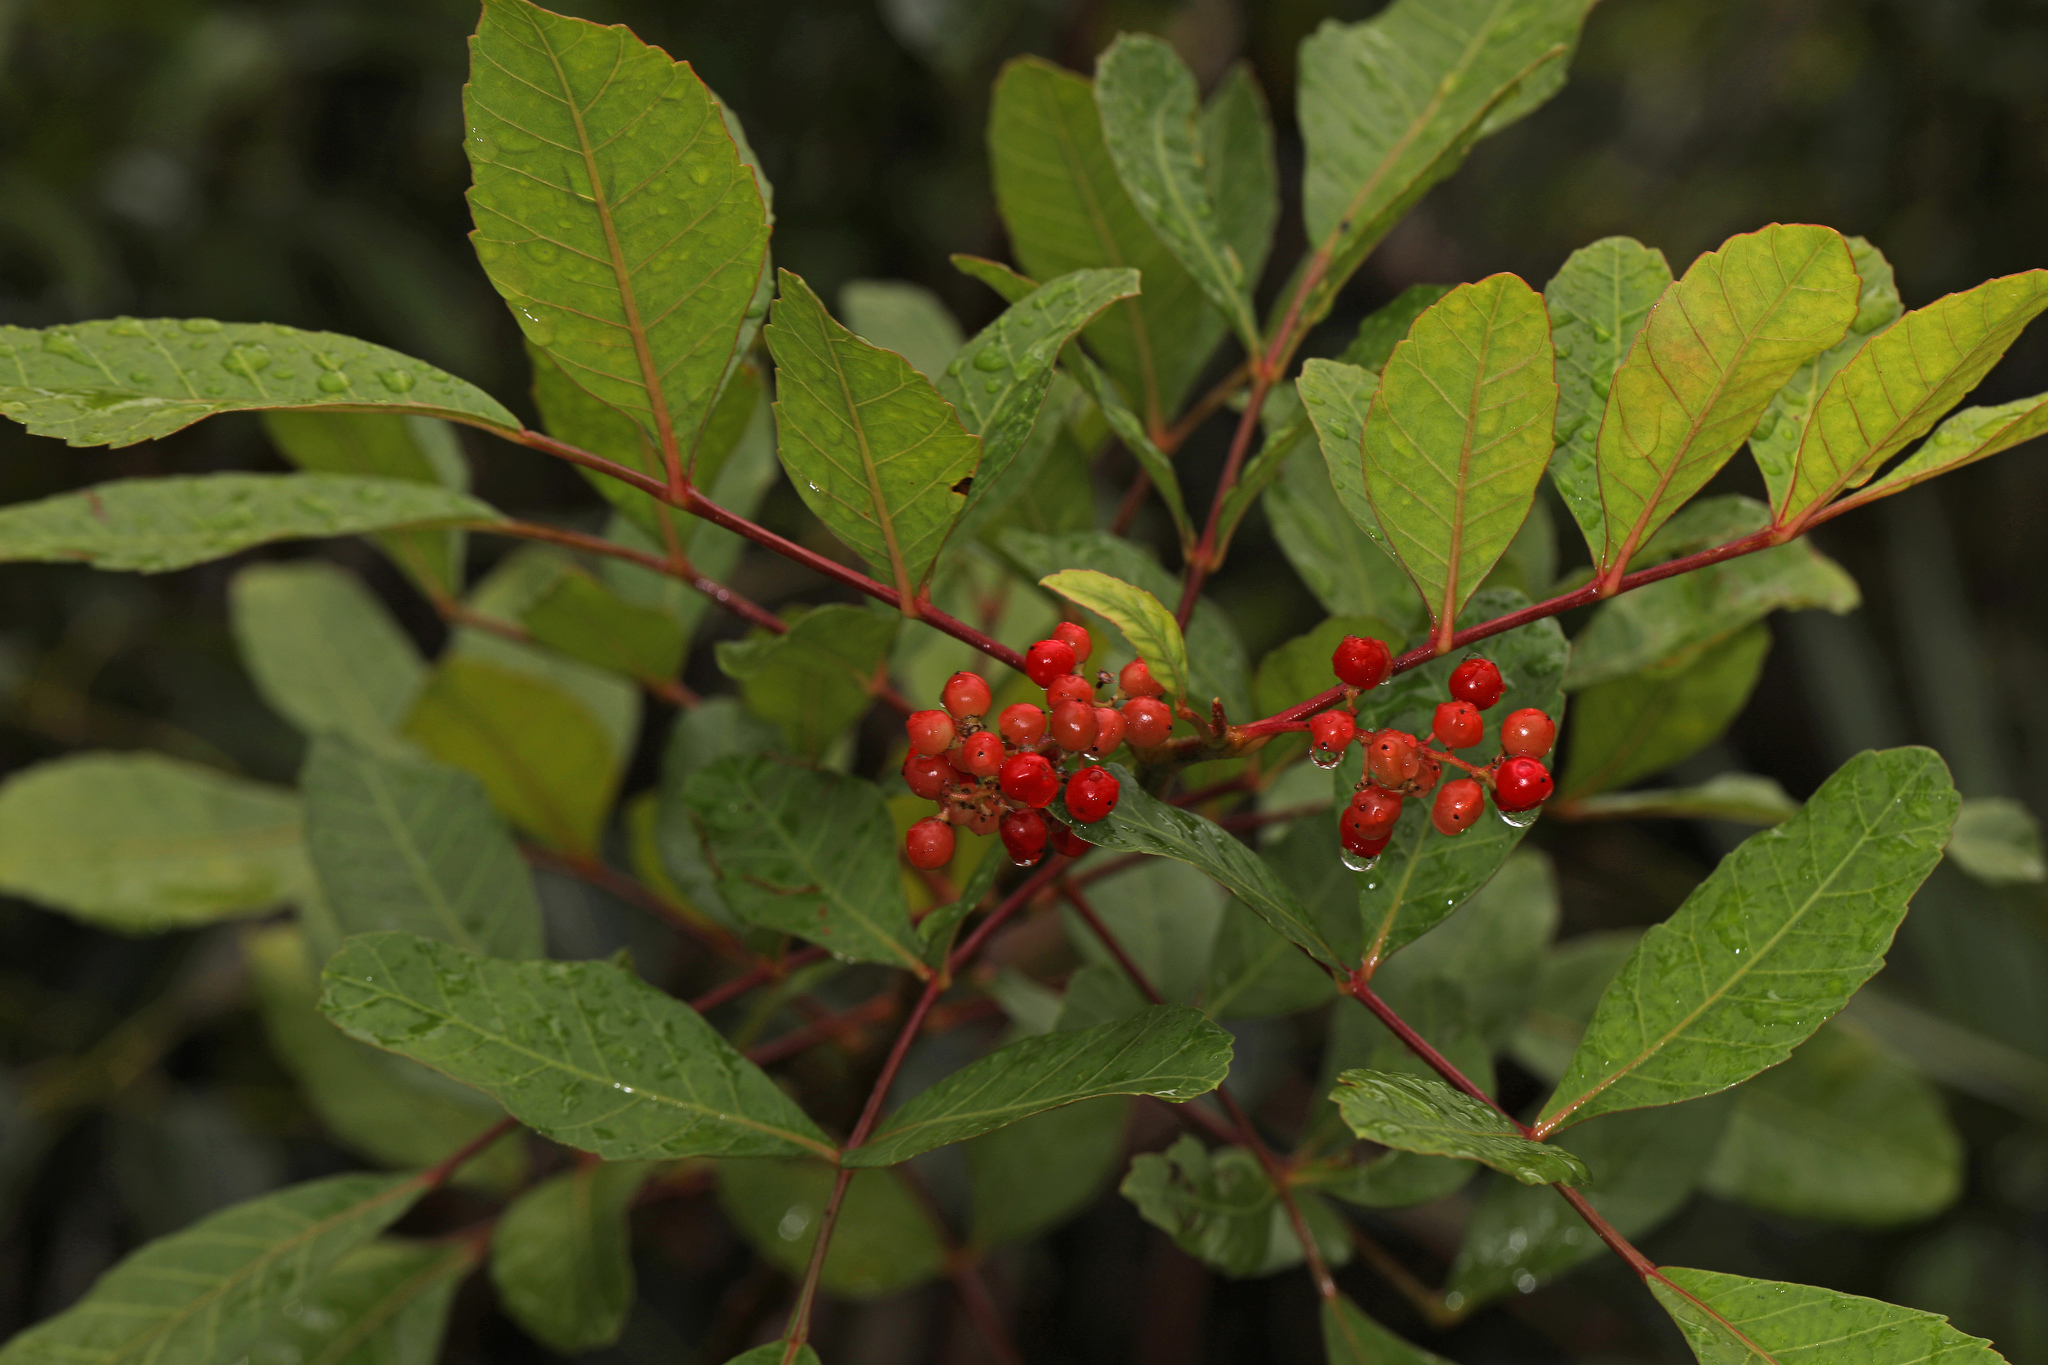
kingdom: Plantae
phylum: Tracheophyta
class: Magnoliopsida
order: Sapindales
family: Anacardiaceae
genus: Schinus
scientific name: Schinus terebinthifolia
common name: Brazilian peppertree
